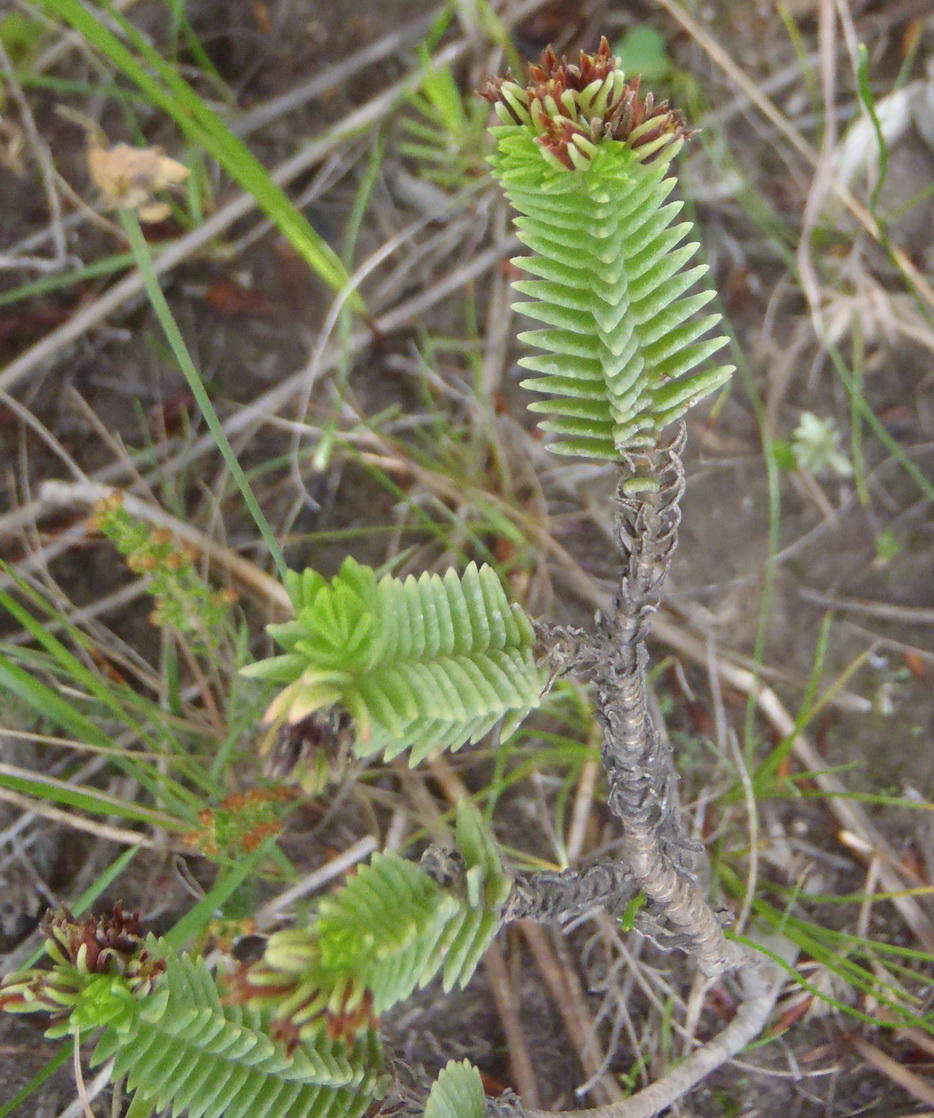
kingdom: Plantae
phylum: Tracheophyta
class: Magnoliopsida
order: Saxifragales
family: Crassulaceae
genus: Crassula
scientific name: Crassula ericoides
